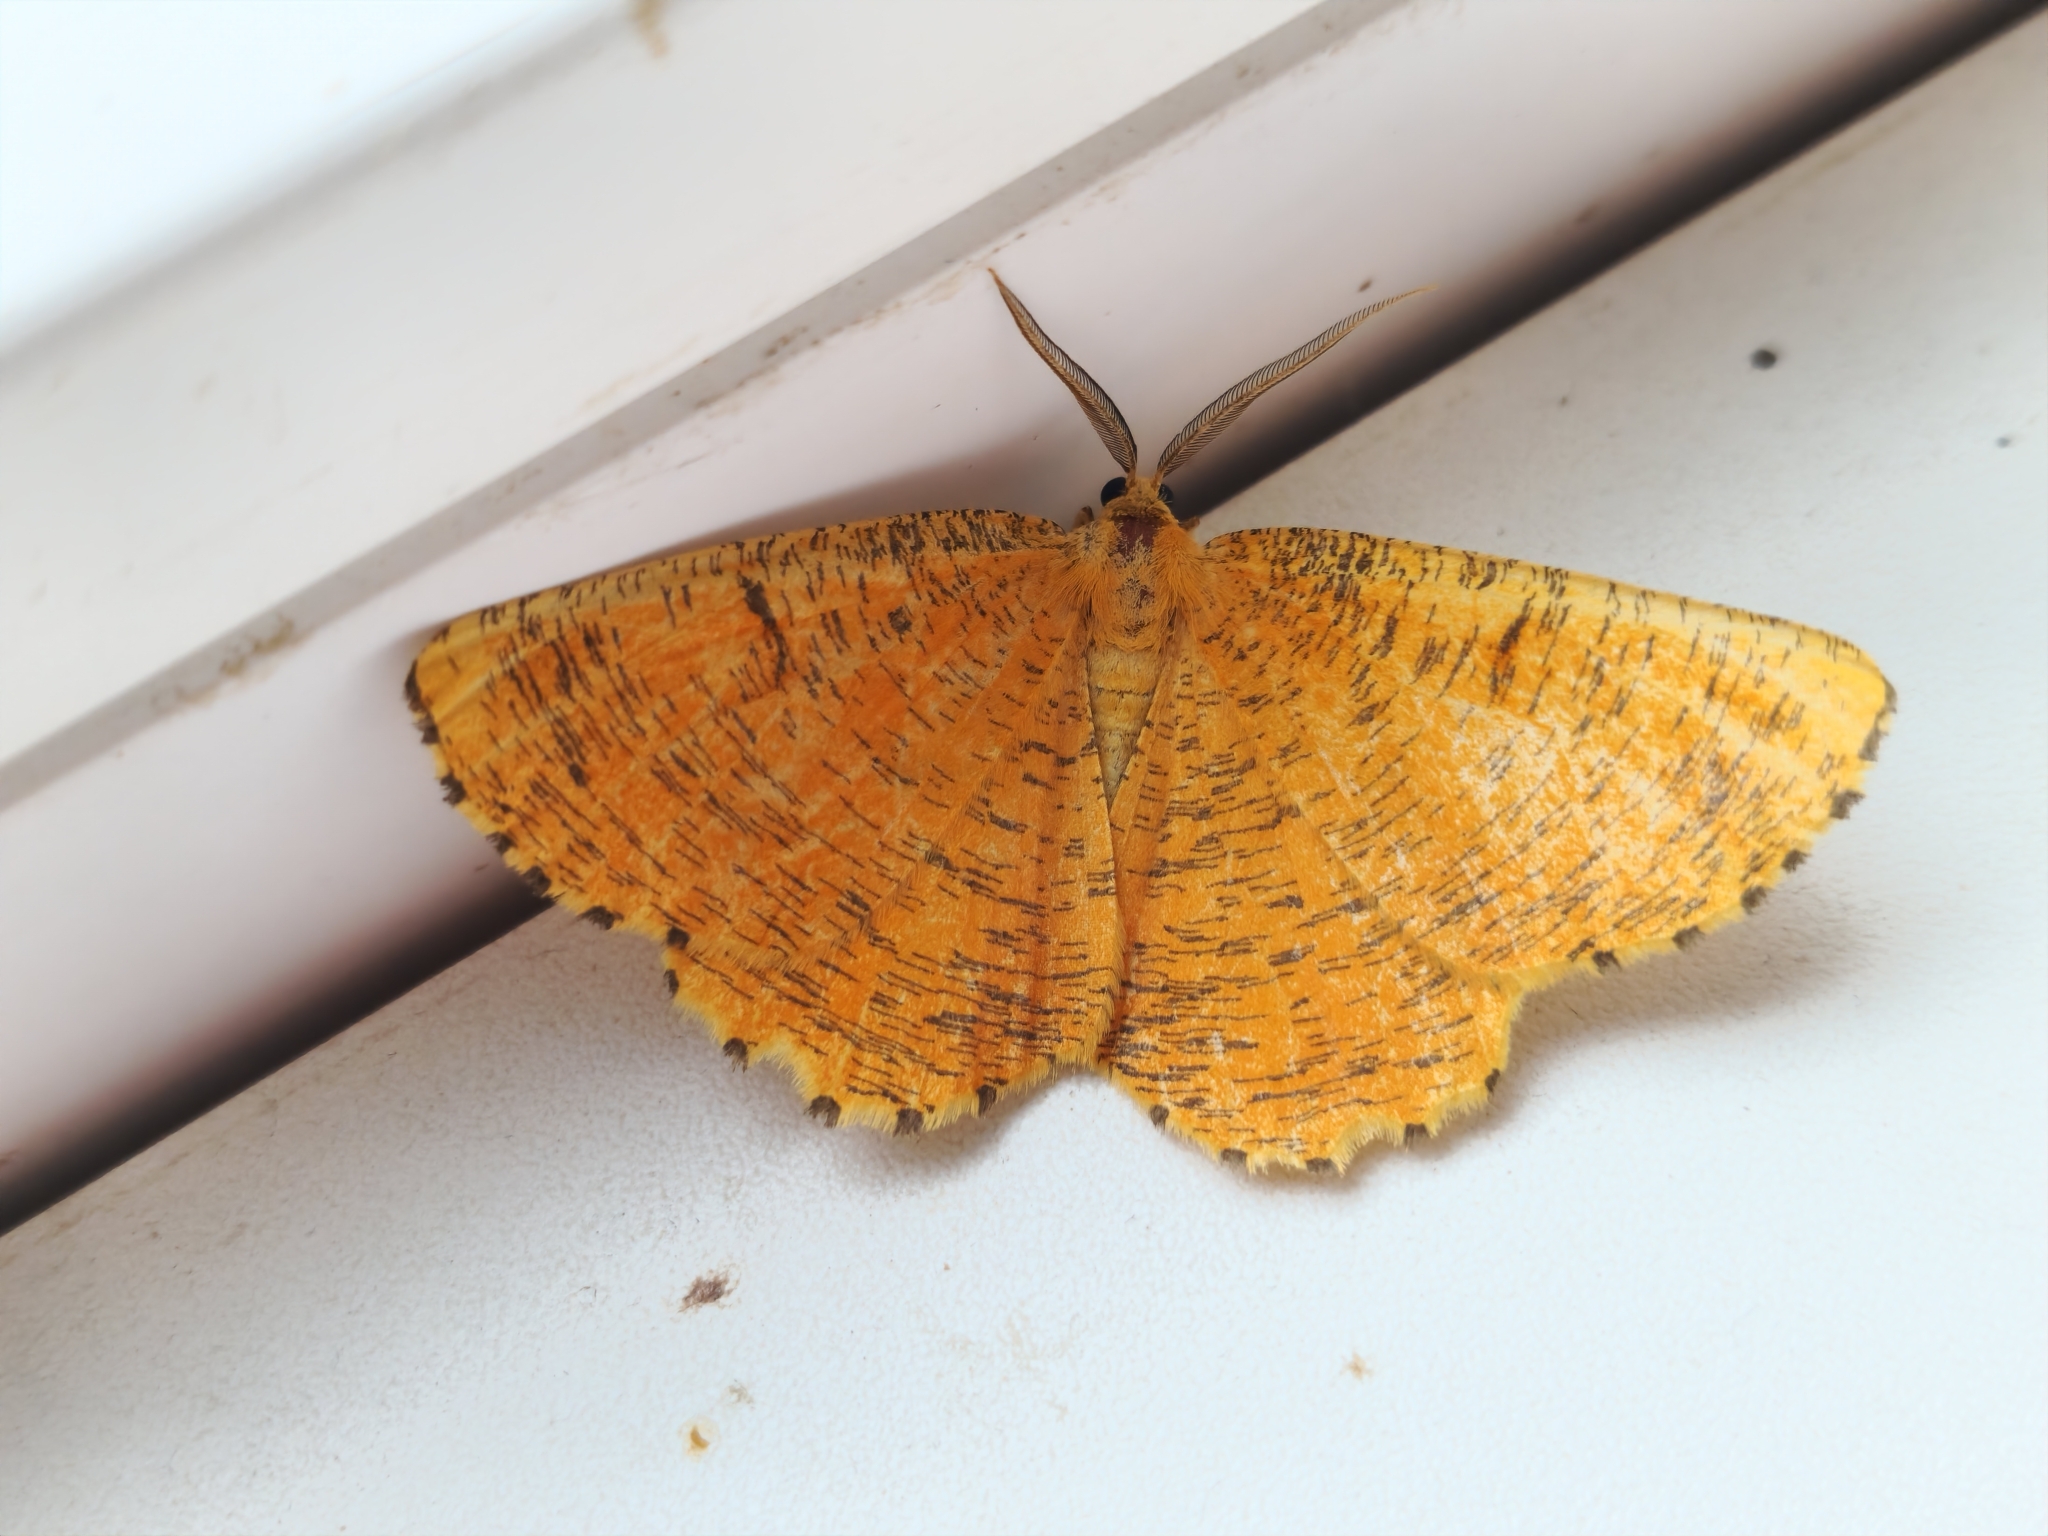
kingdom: Animalia
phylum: Arthropoda
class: Insecta
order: Lepidoptera
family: Geometridae
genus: Angerona
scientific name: Angerona prunaria
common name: Orange moth
